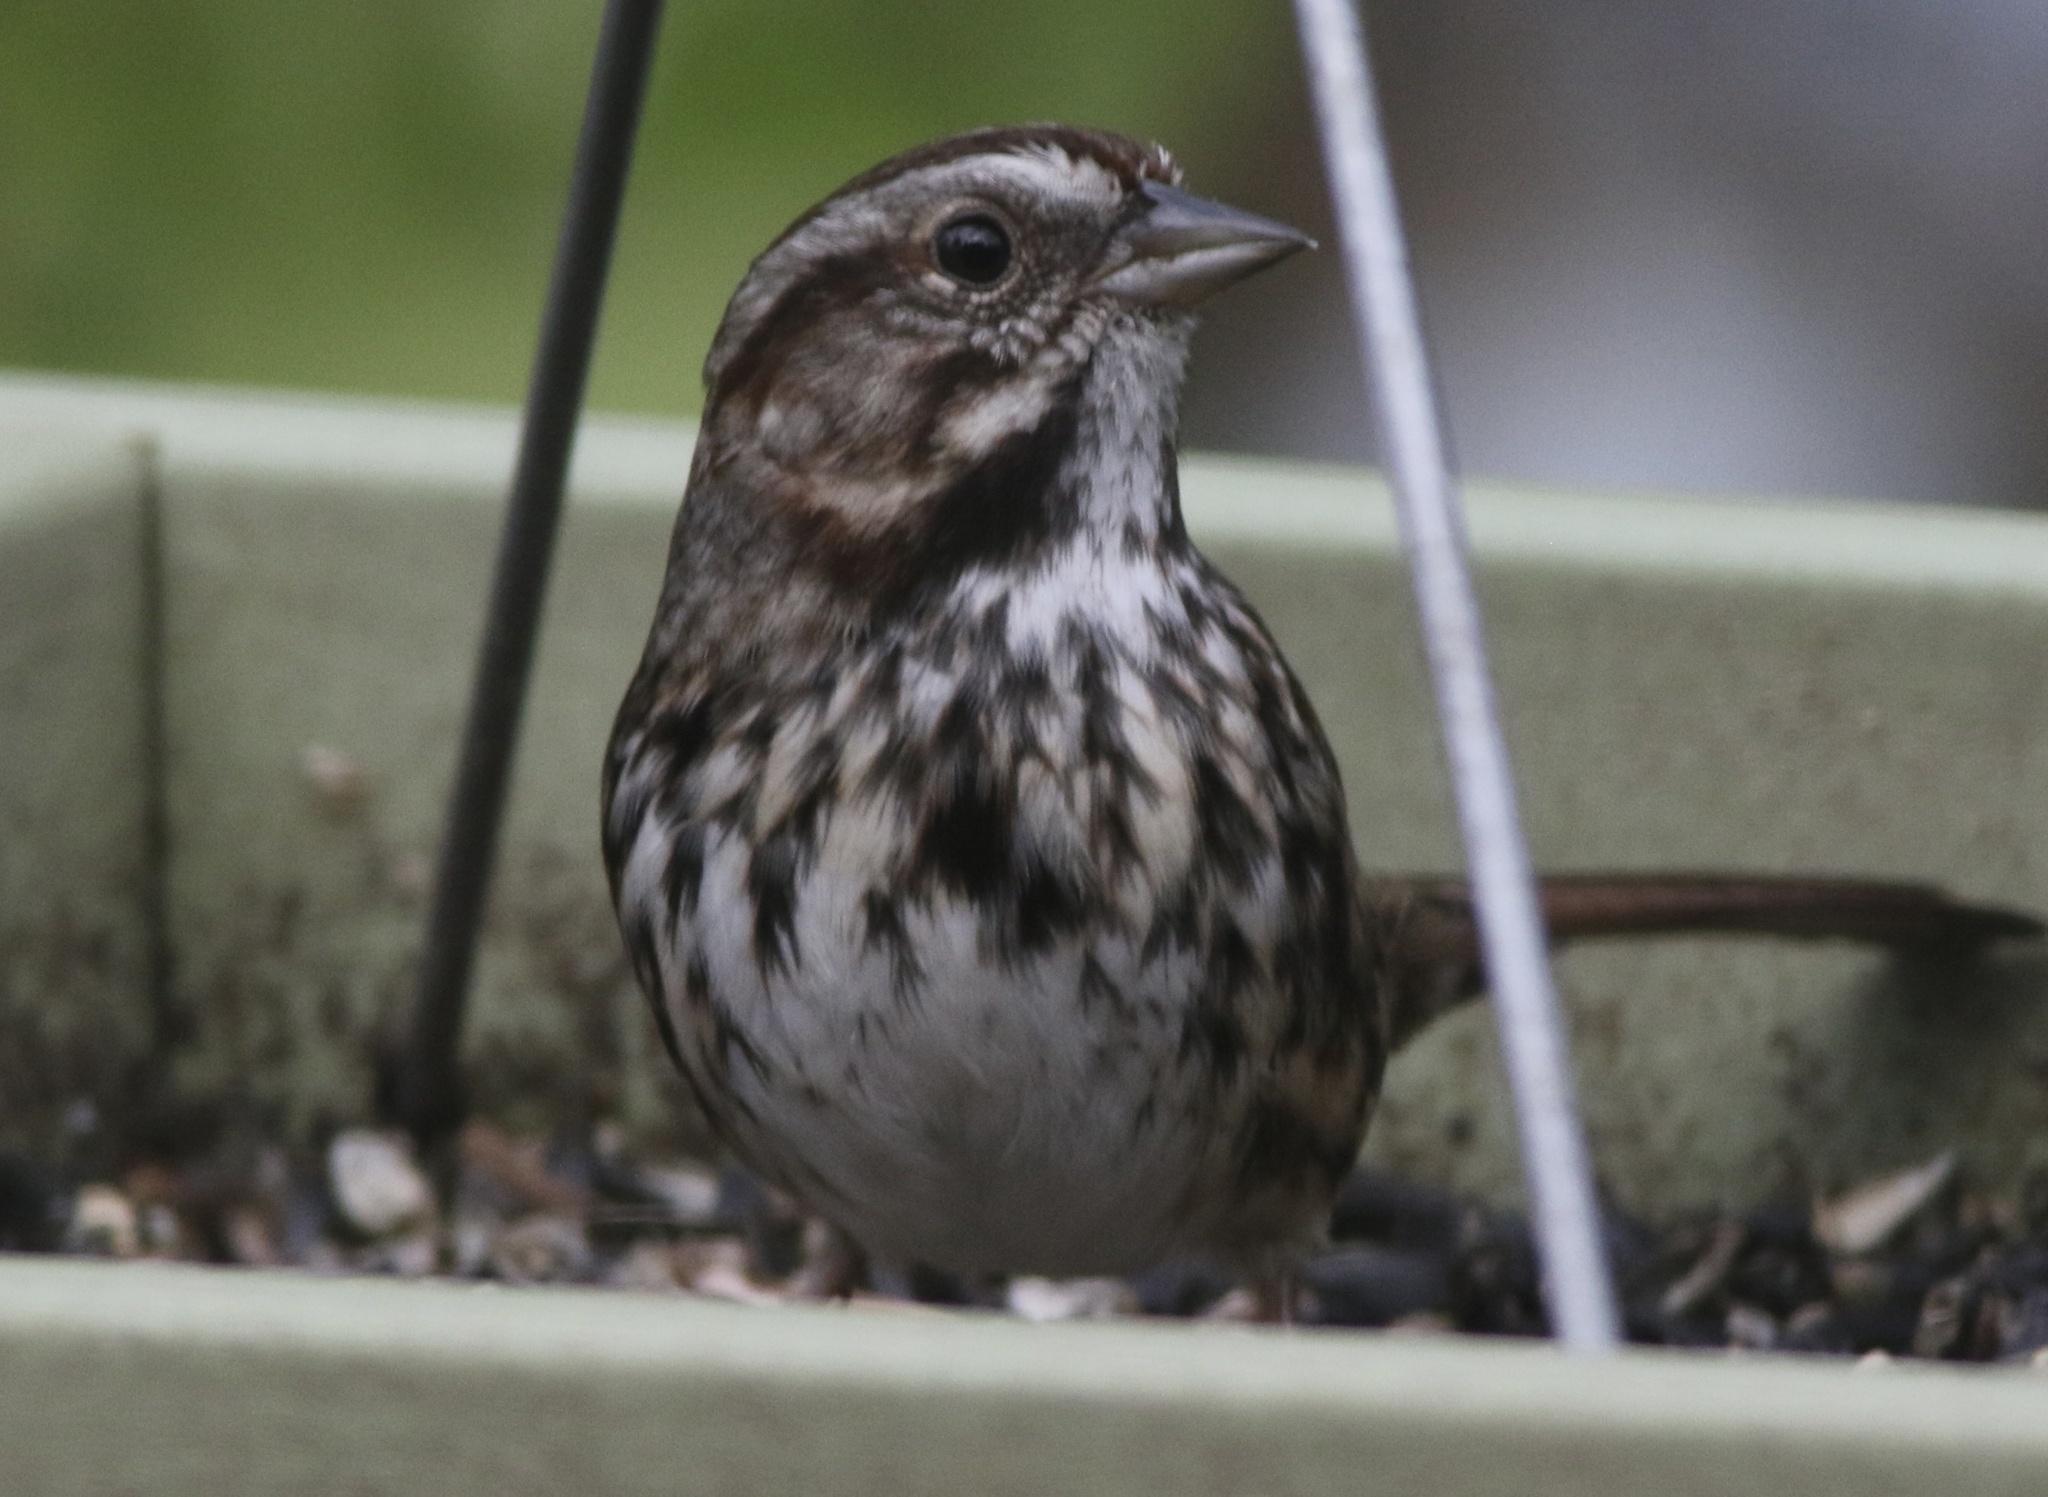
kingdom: Animalia
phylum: Chordata
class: Aves
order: Passeriformes
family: Passerellidae
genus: Melospiza
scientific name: Melospiza melodia
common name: Song sparrow
